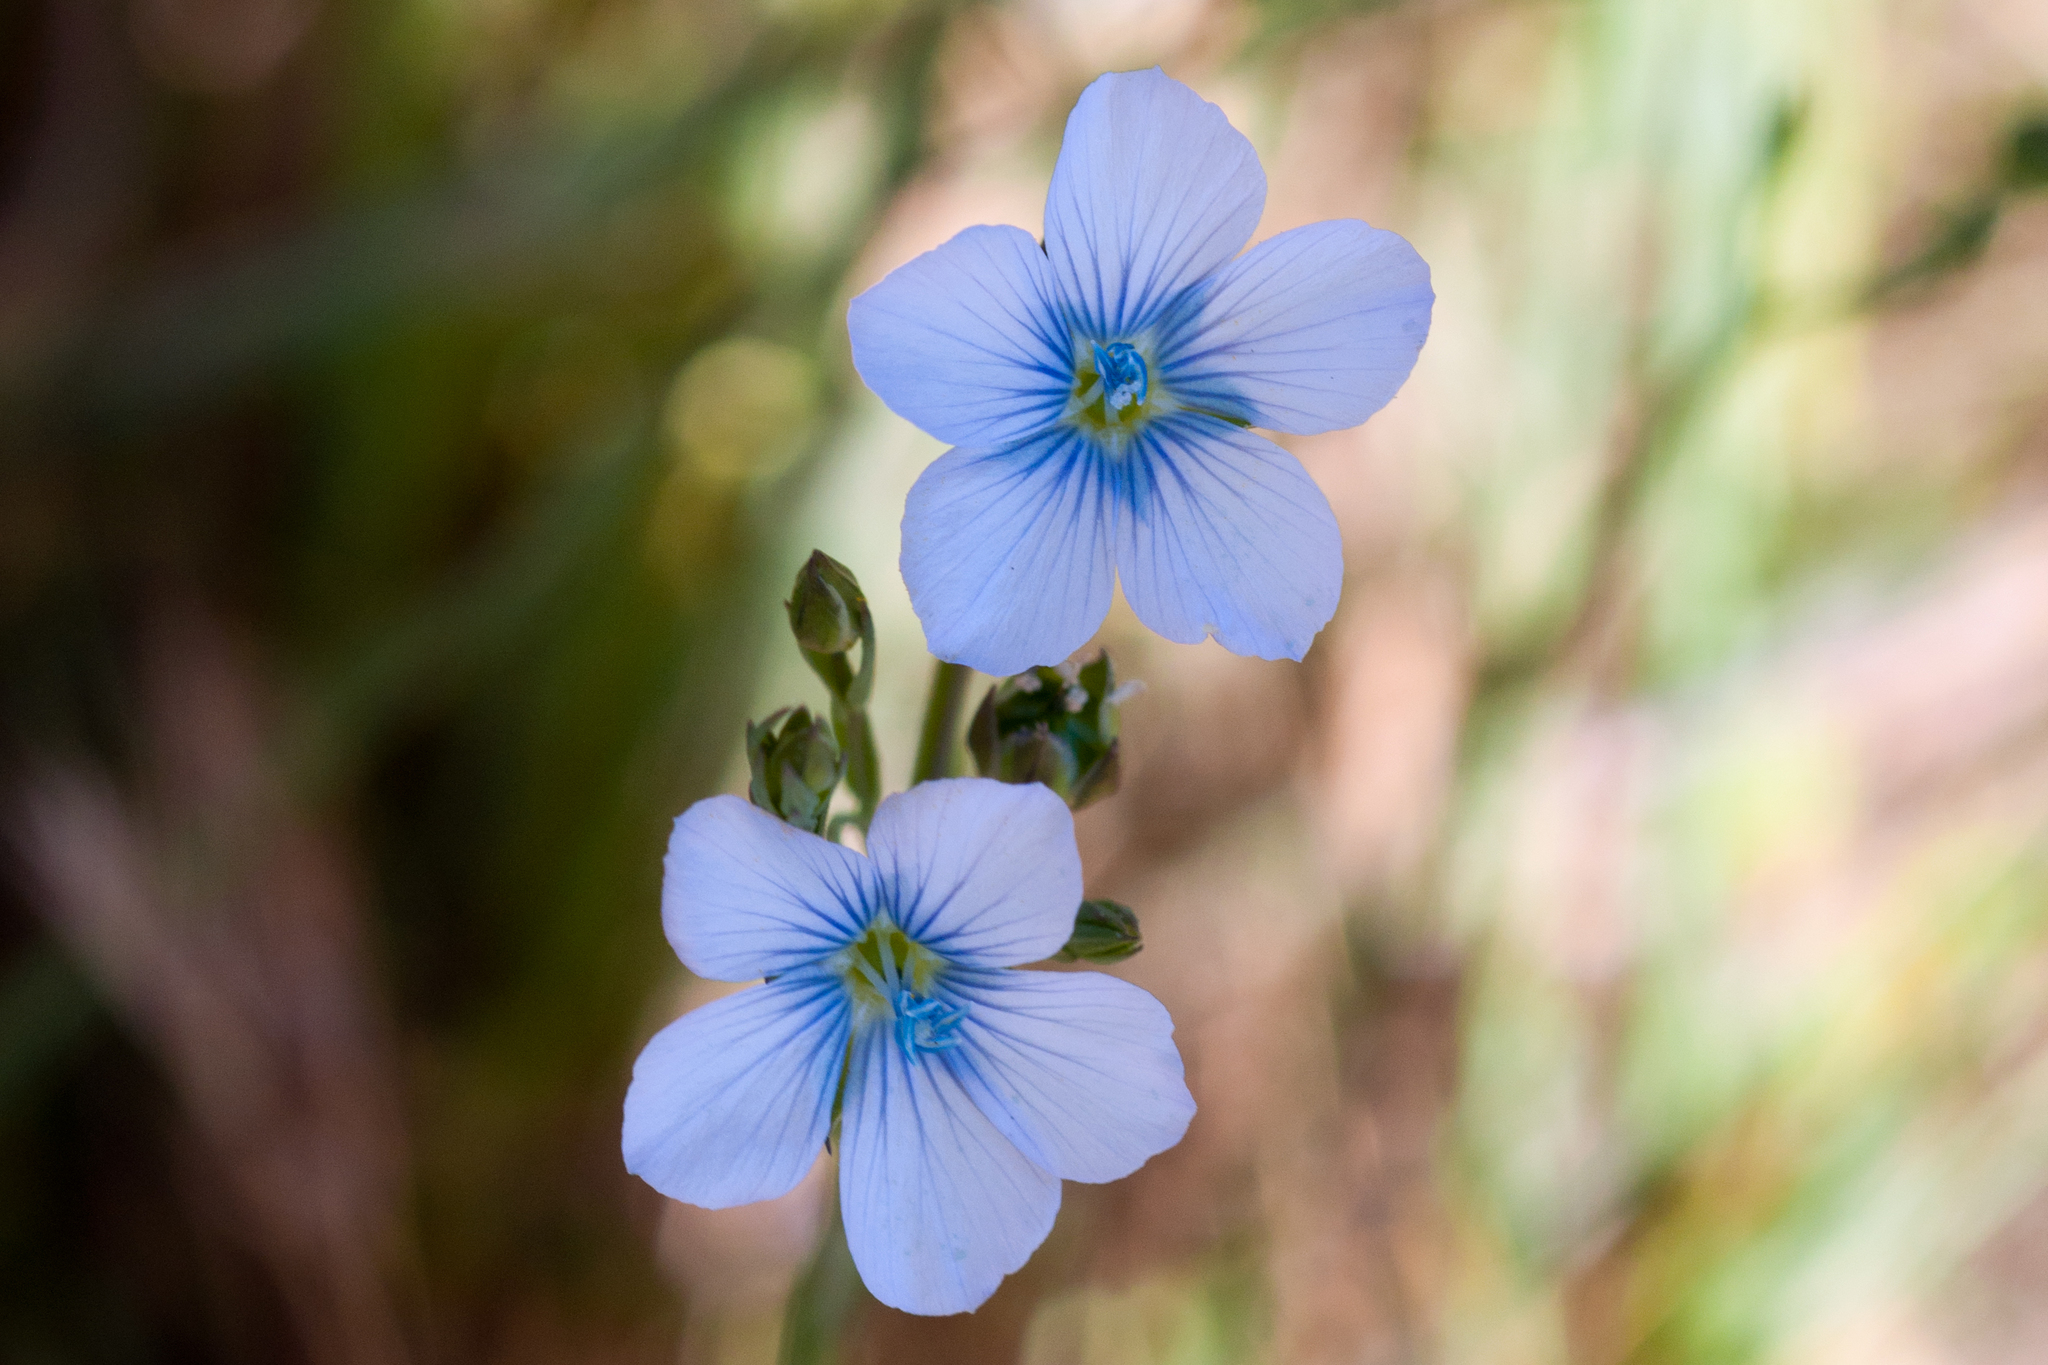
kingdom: Plantae
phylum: Tracheophyta
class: Magnoliopsida
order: Malpighiales
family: Linaceae
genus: Linum
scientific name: Linum bienne
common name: Pale flax
